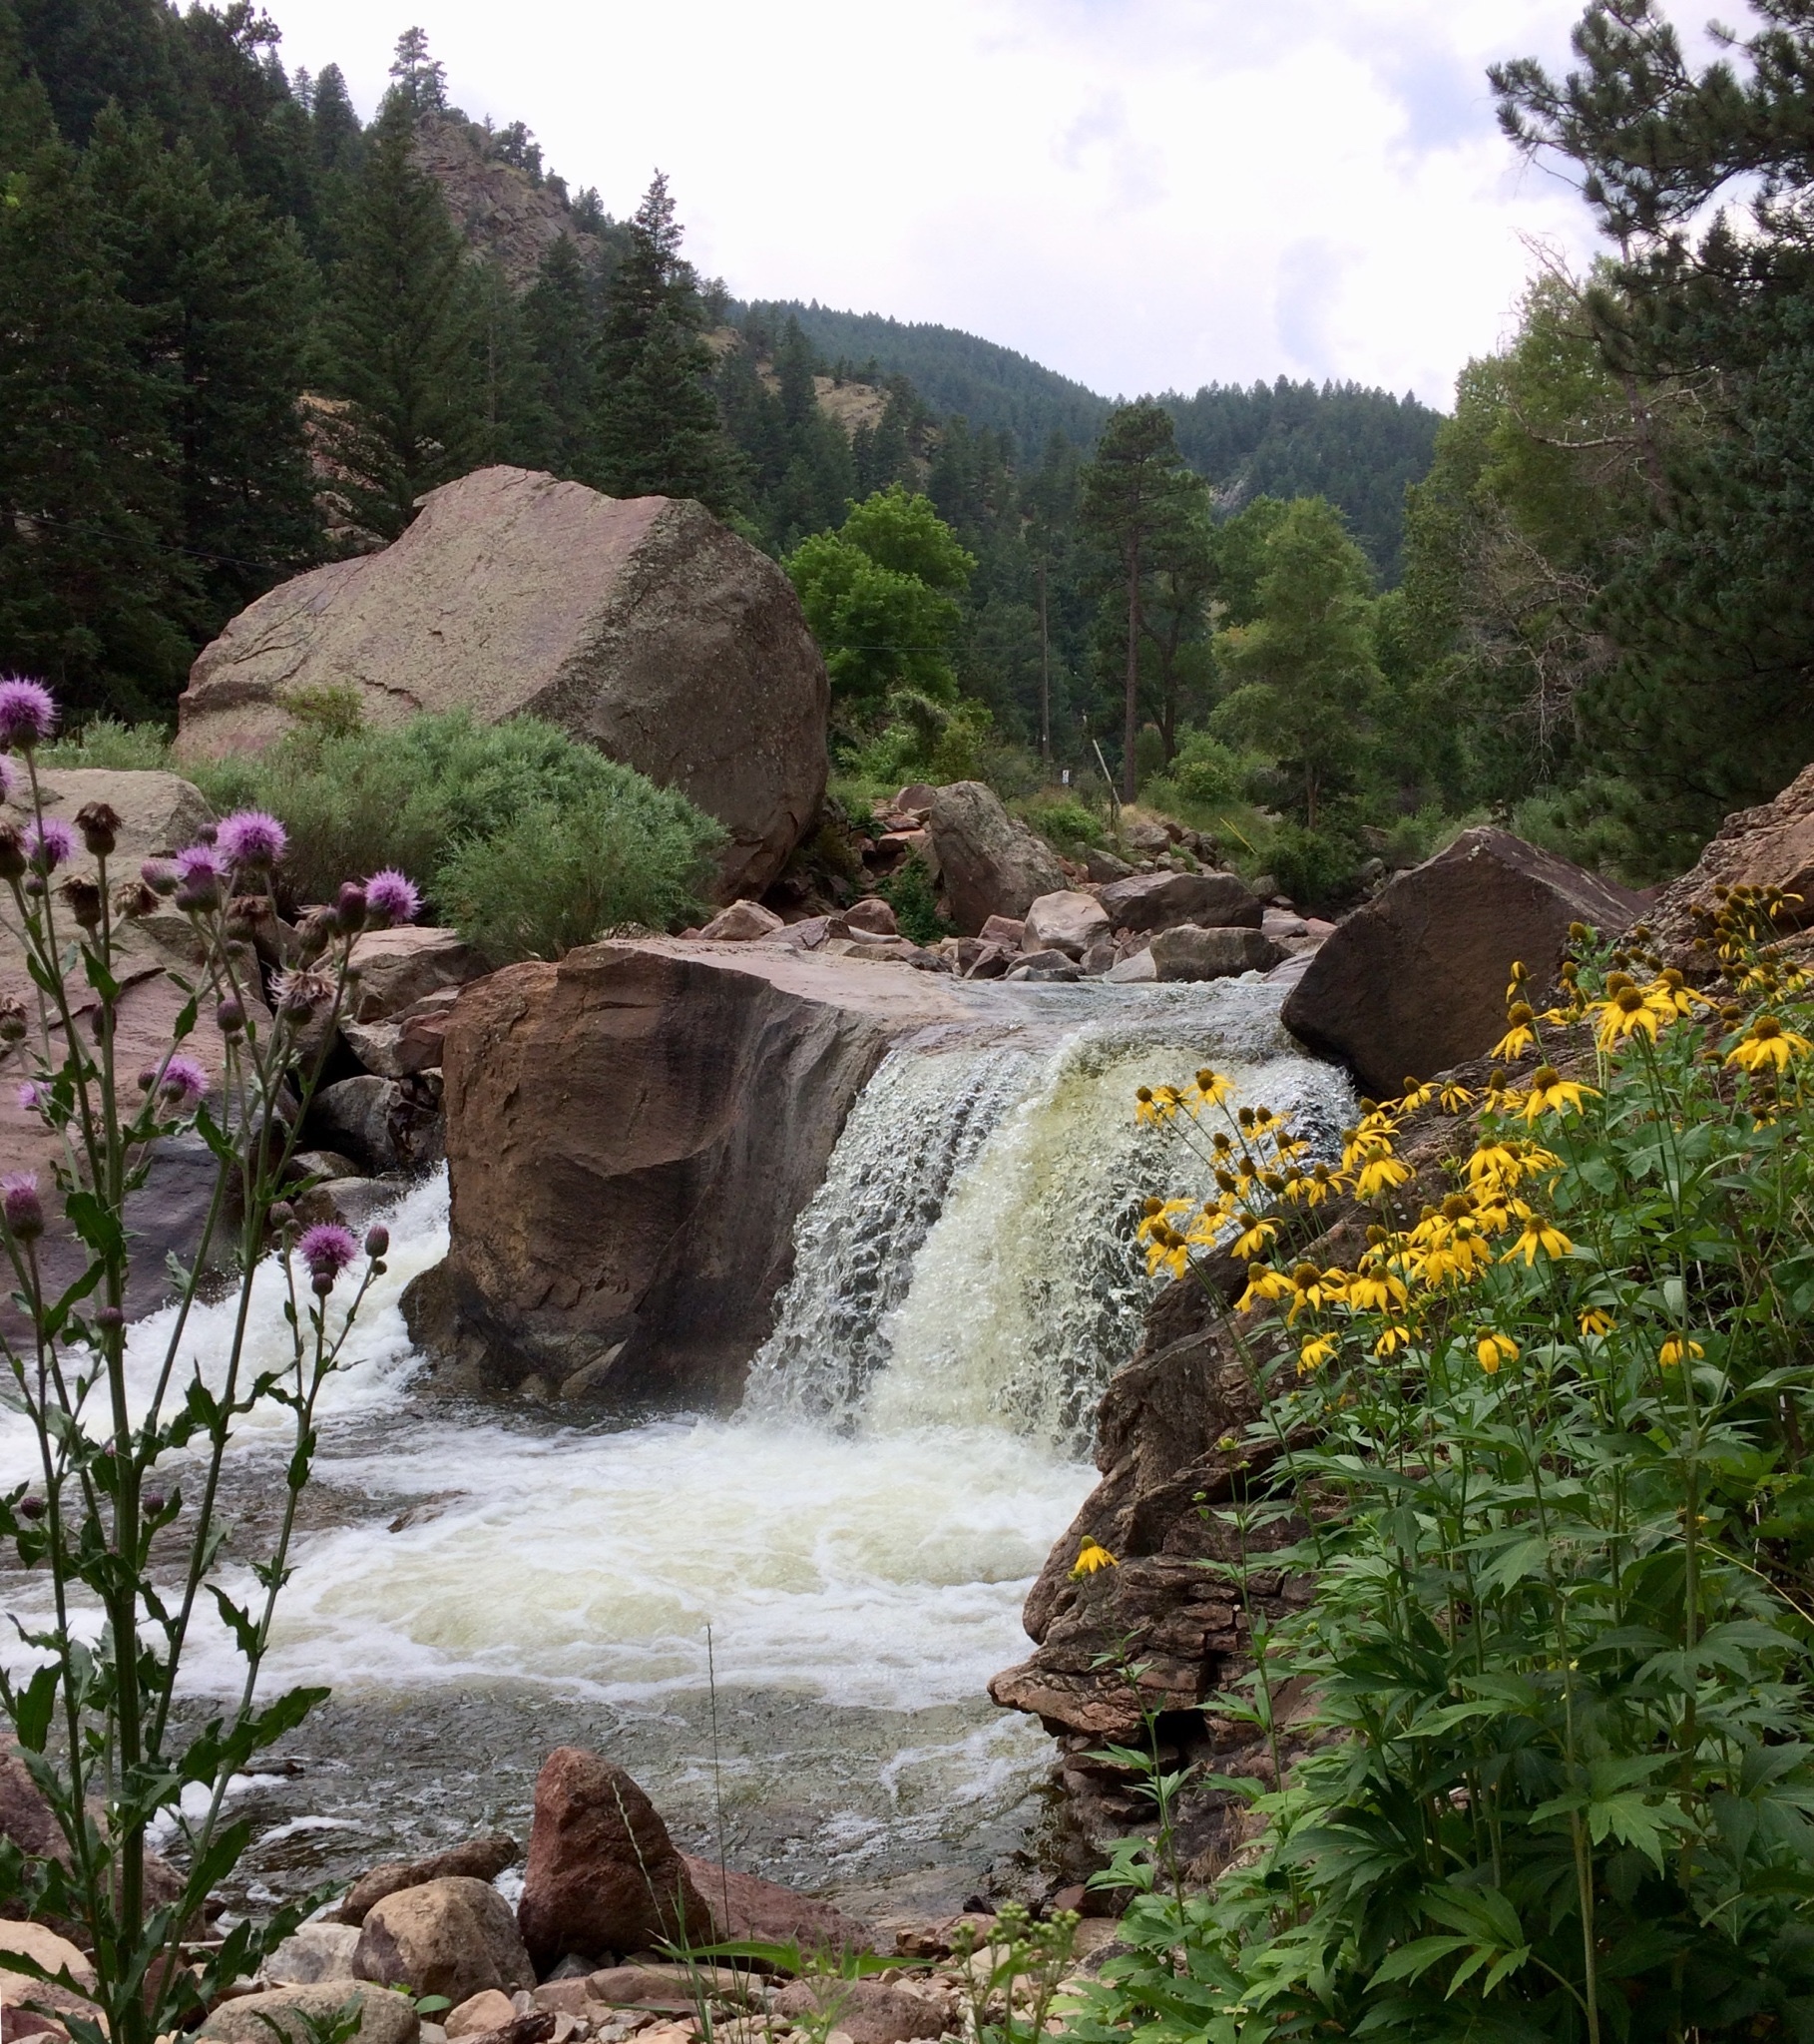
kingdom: Plantae
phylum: Tracheophyta
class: Magnoliopsida
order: Asterales
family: Asteraceae
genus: Cirsium
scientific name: Cirsium arvense
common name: Creeping thistle
